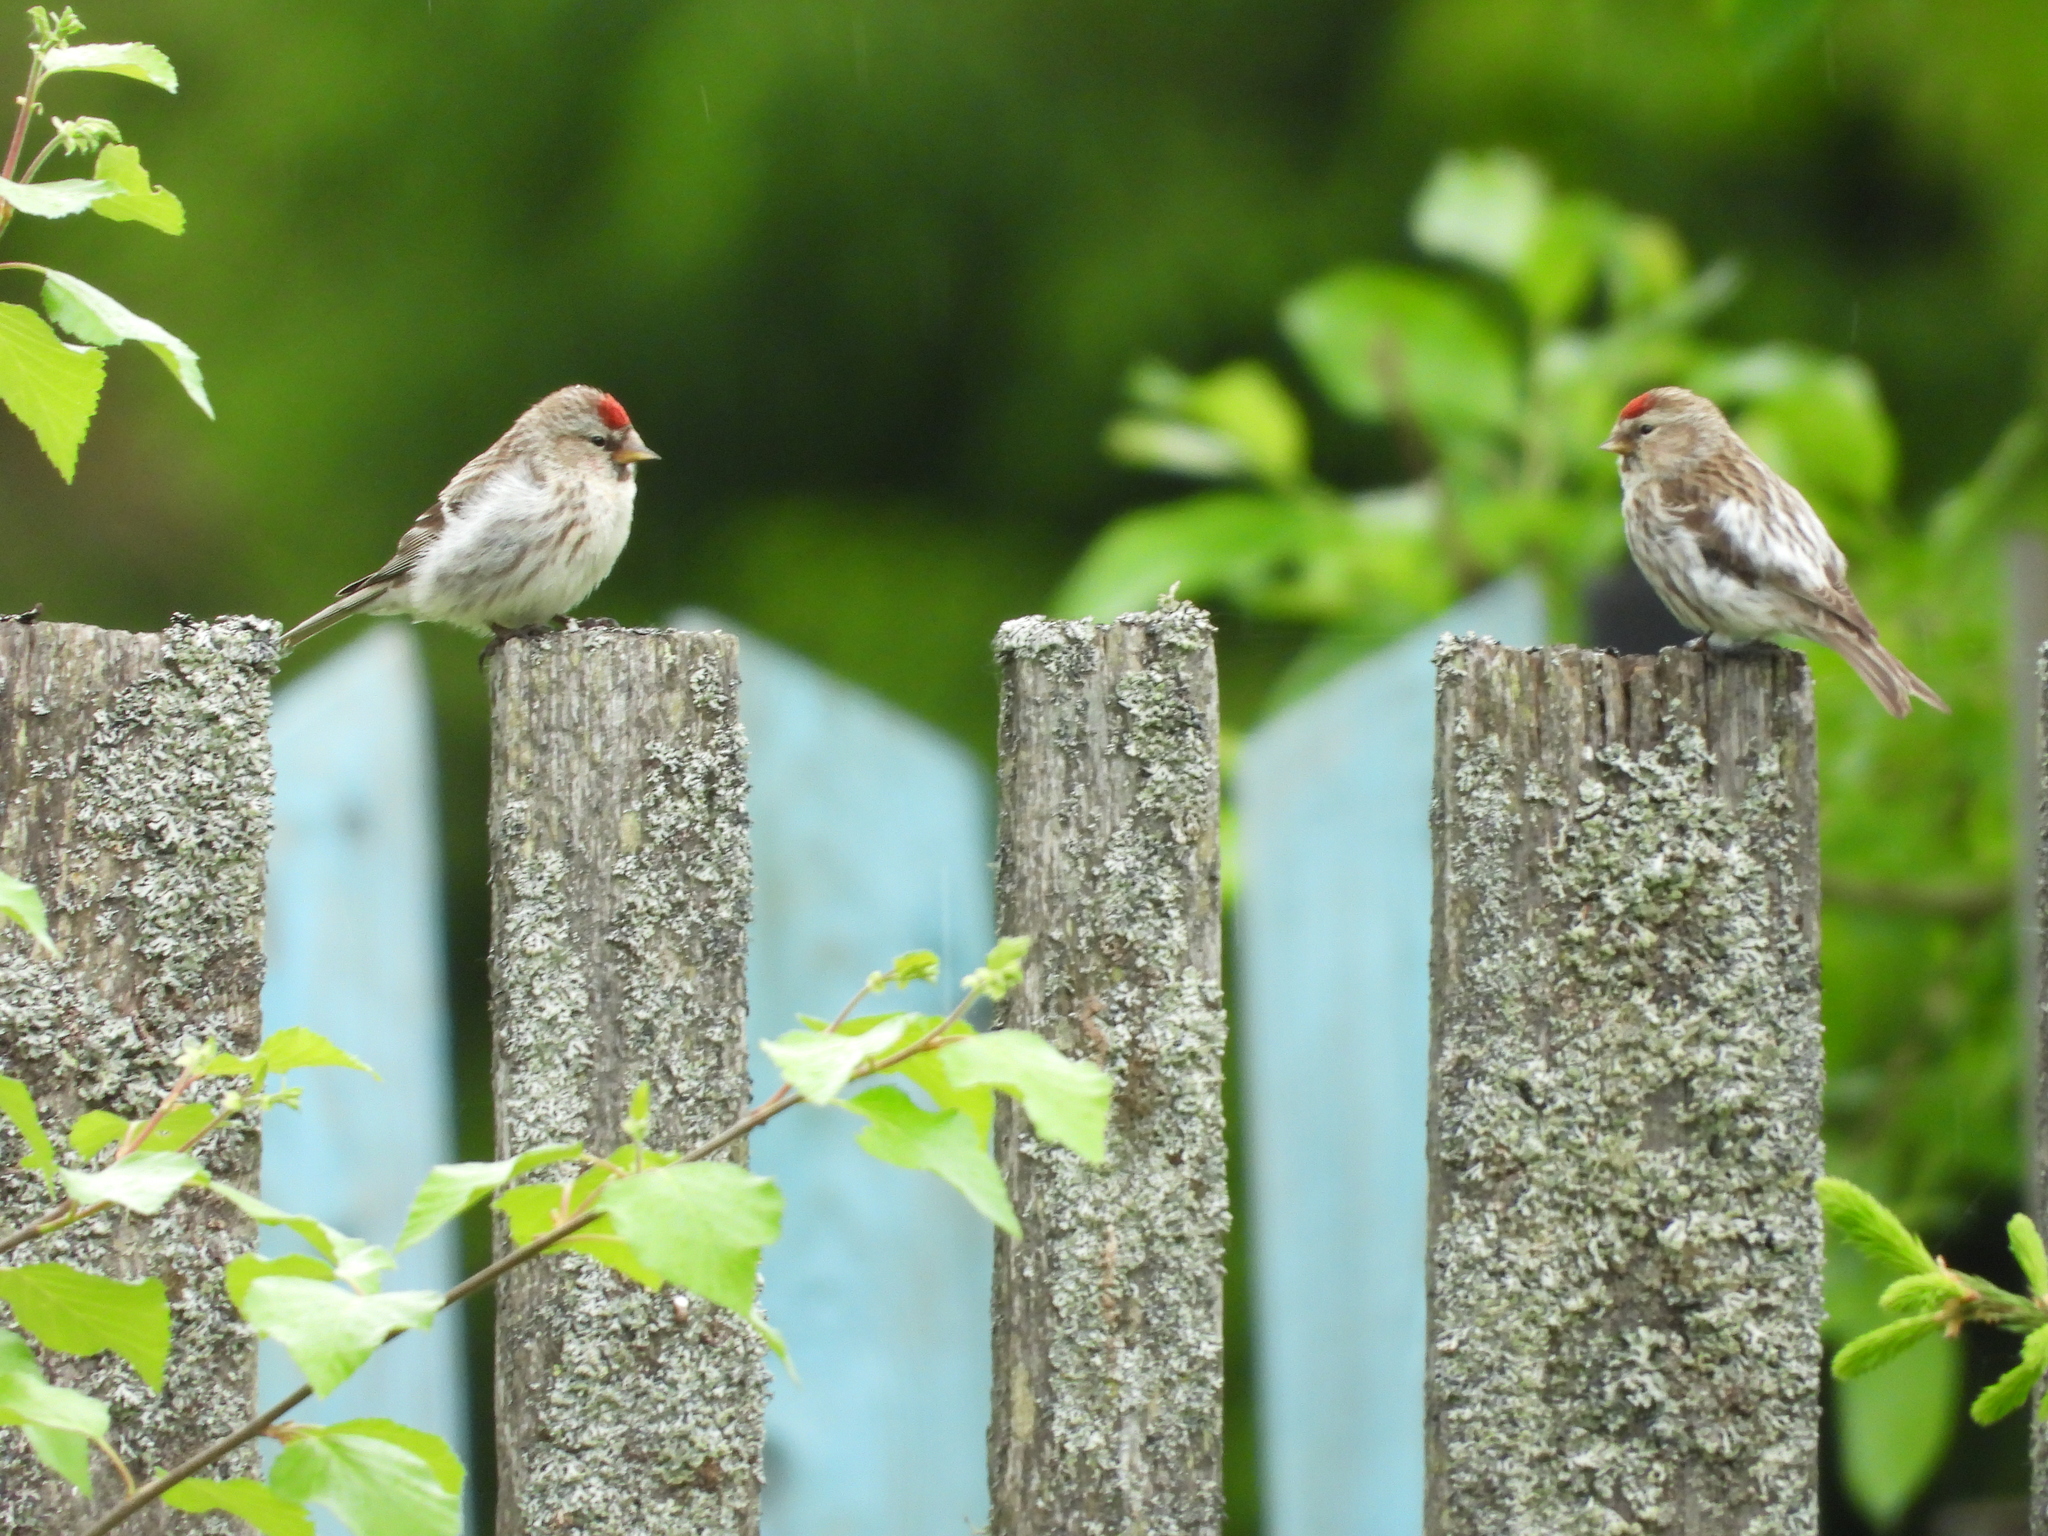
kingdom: Animalia
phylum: Chordata
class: Aves
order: Passeriformes
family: Fringillidae
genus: Acanthis
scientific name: Acanthis flammea
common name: Common redpoll
